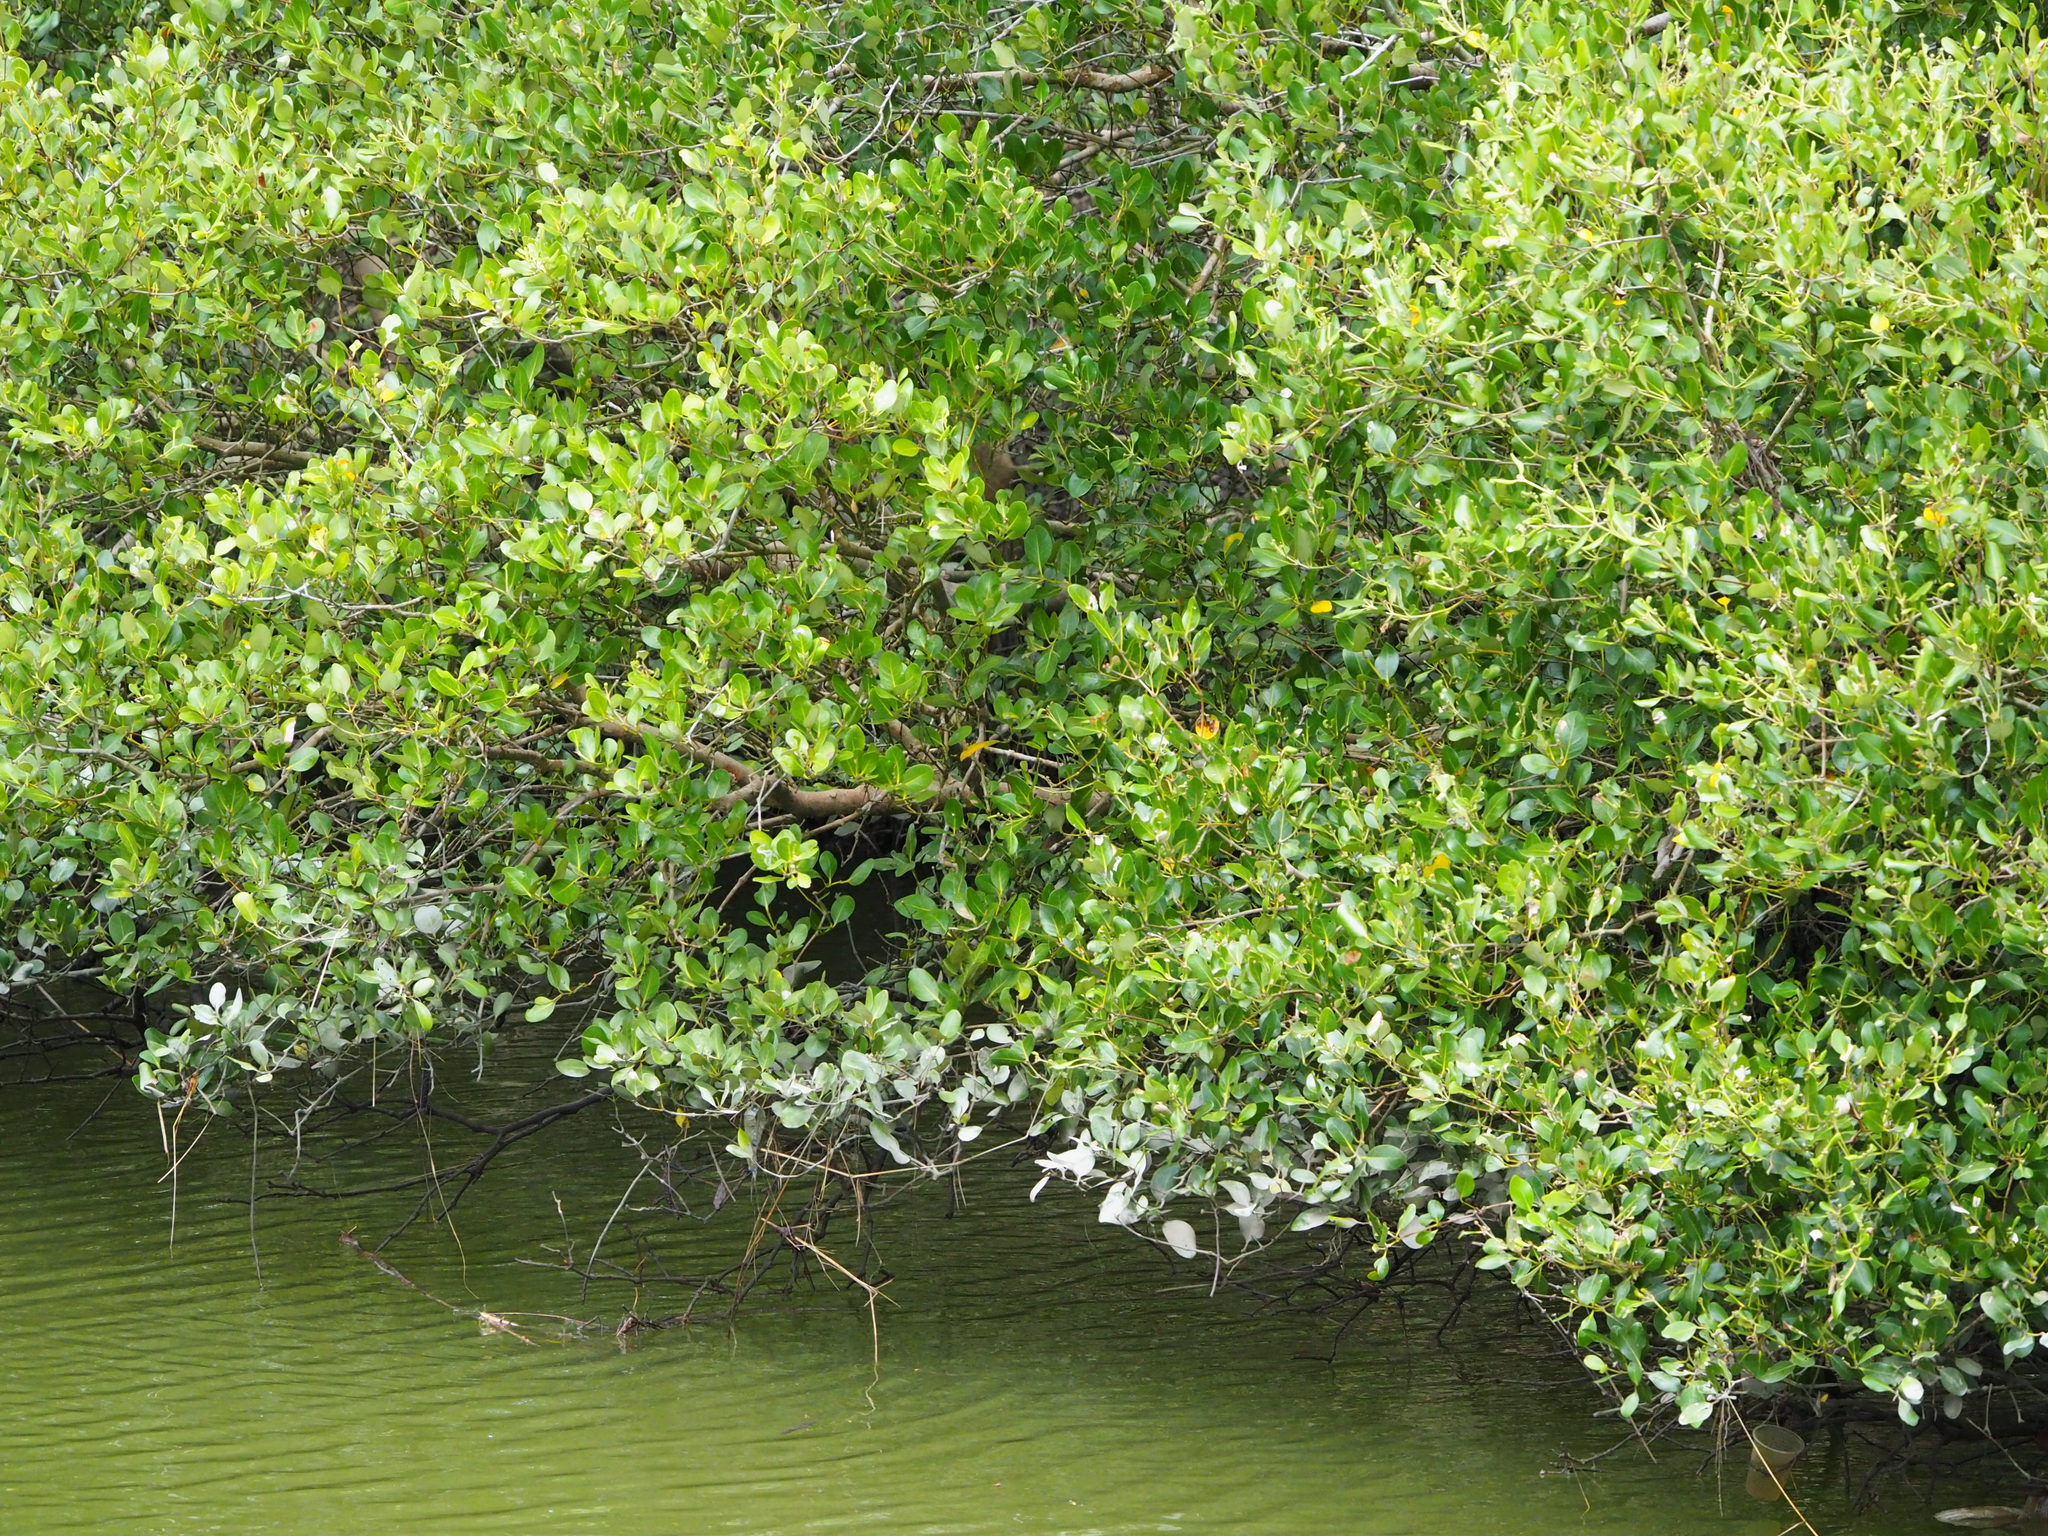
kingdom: Plantae
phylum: Tracheophyta
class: Magnoliopsida
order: Lamiales
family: Acanthaceae
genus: Avicennia
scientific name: Avicennia marina
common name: Gray mangrove
